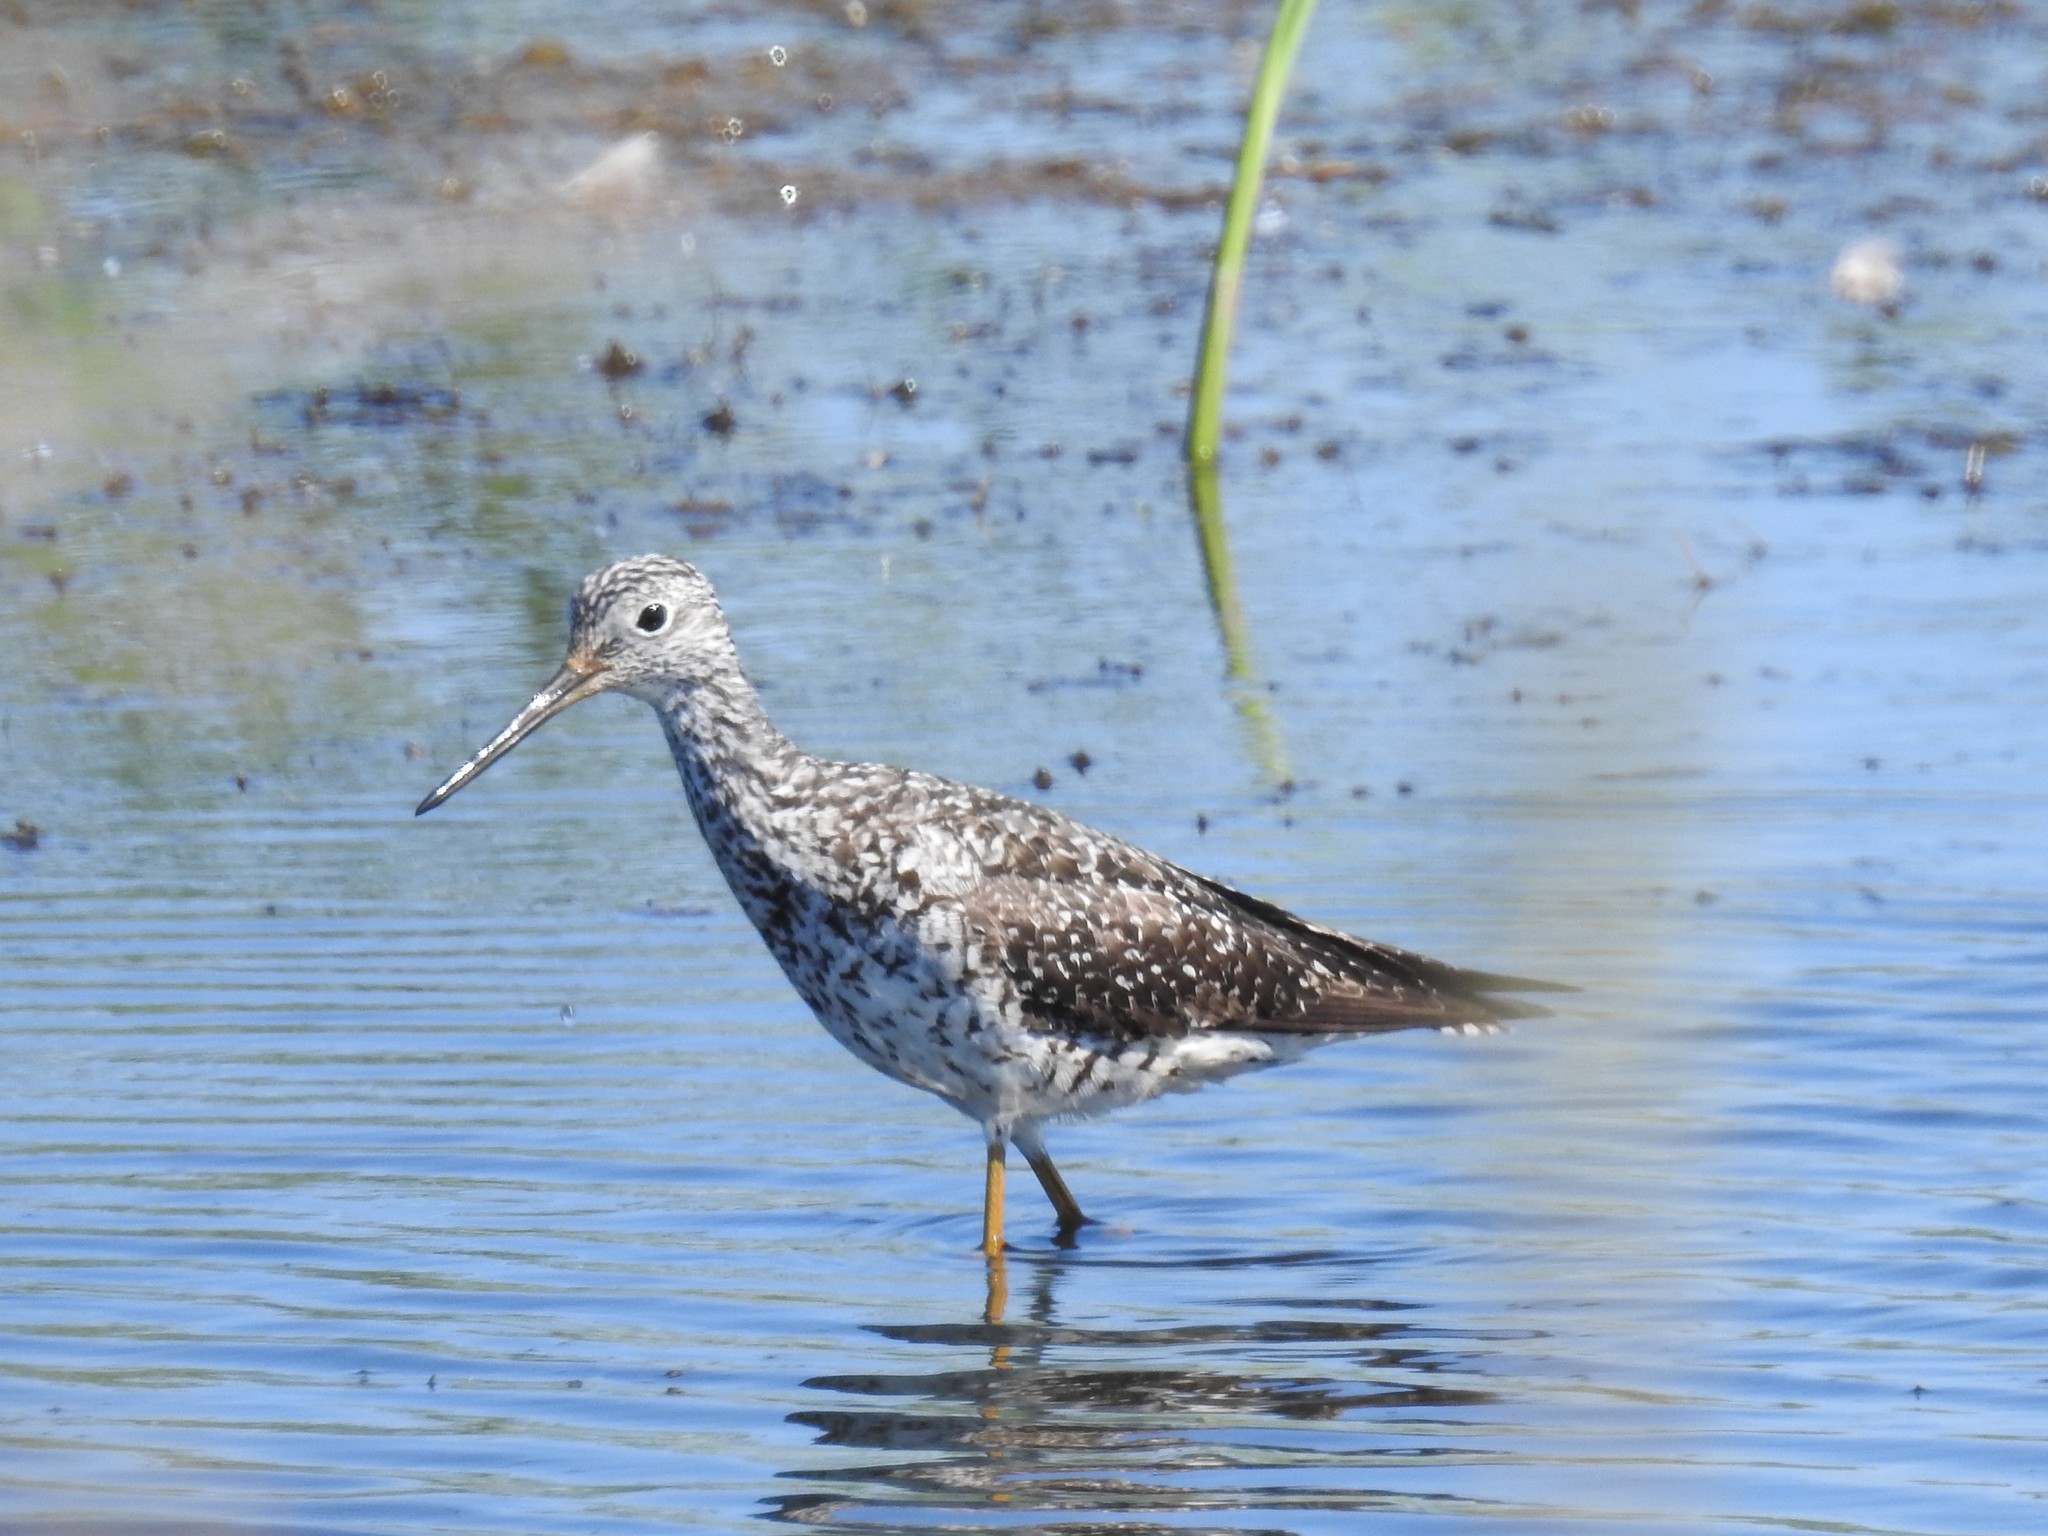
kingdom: Animalia
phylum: Chordata
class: Aves
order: Charadriiformes
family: Scolopacidae
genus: Tringa
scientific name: Tringa melanoleuca
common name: Greater yellowlegs
